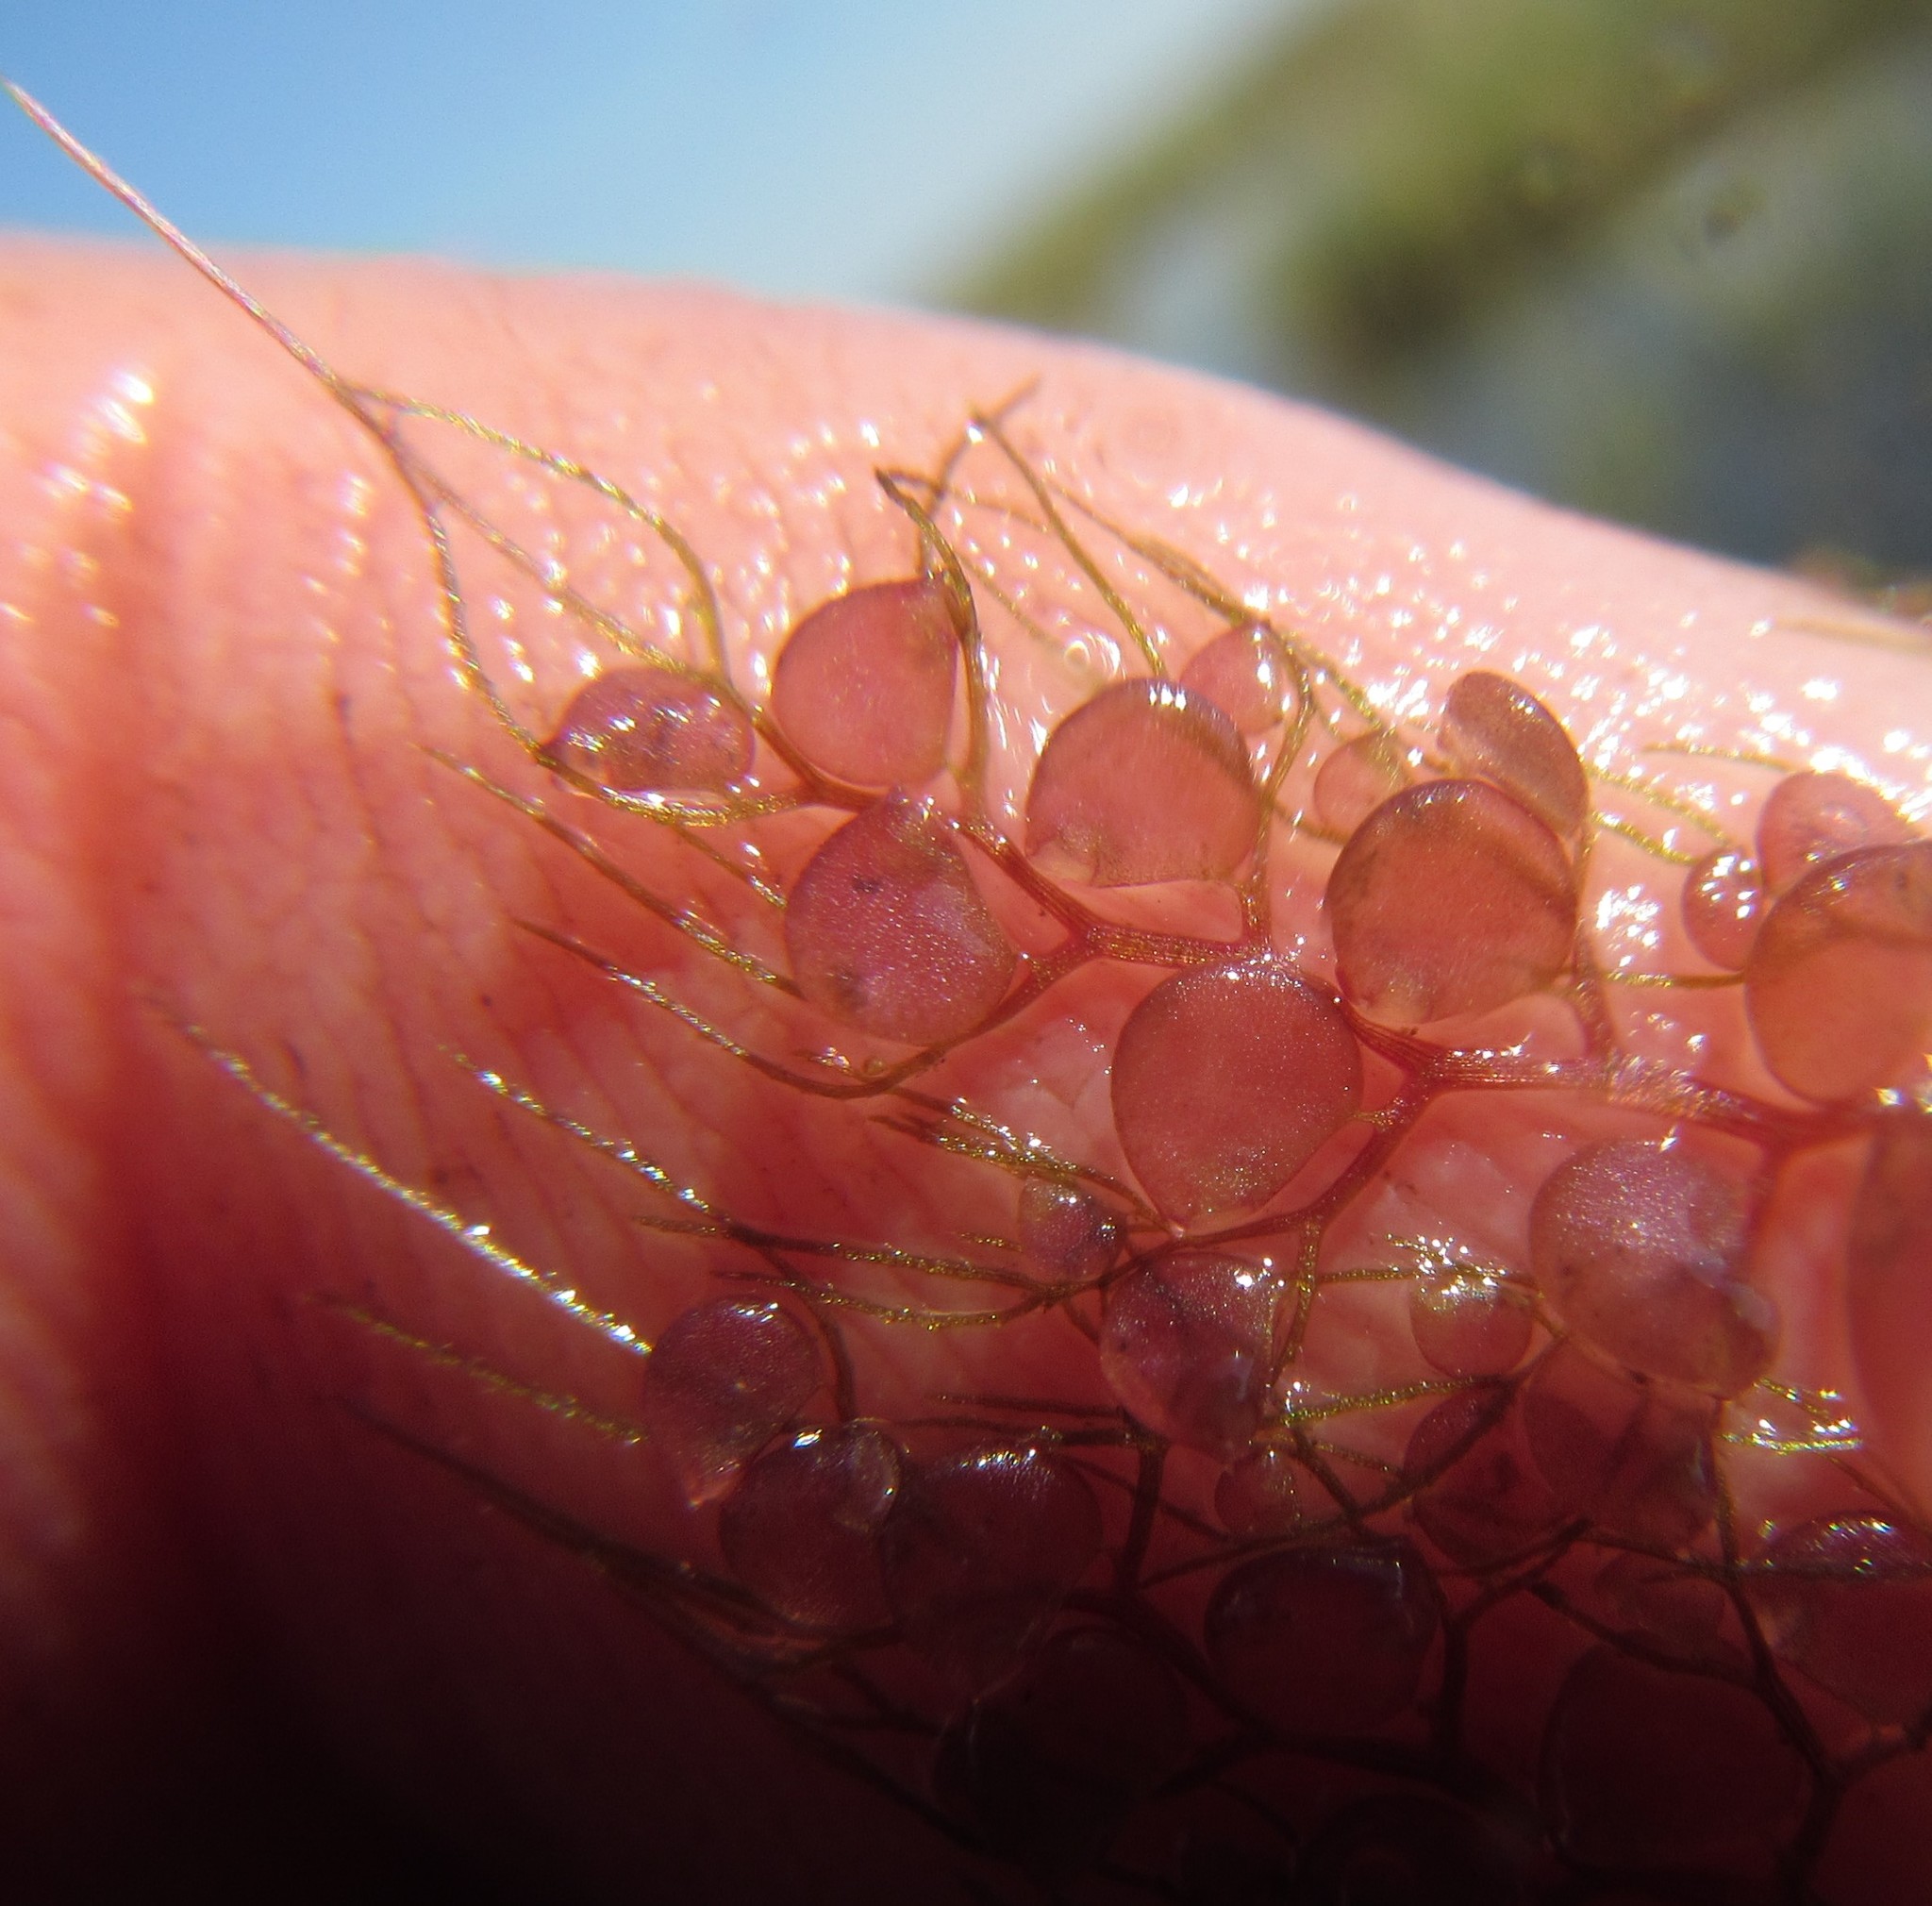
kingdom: Plantae
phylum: Tracheophyta
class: Magnoliopsida
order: Lamiales
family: Lentibulariaceae
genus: Utricularia
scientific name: Utricularia foliosa
